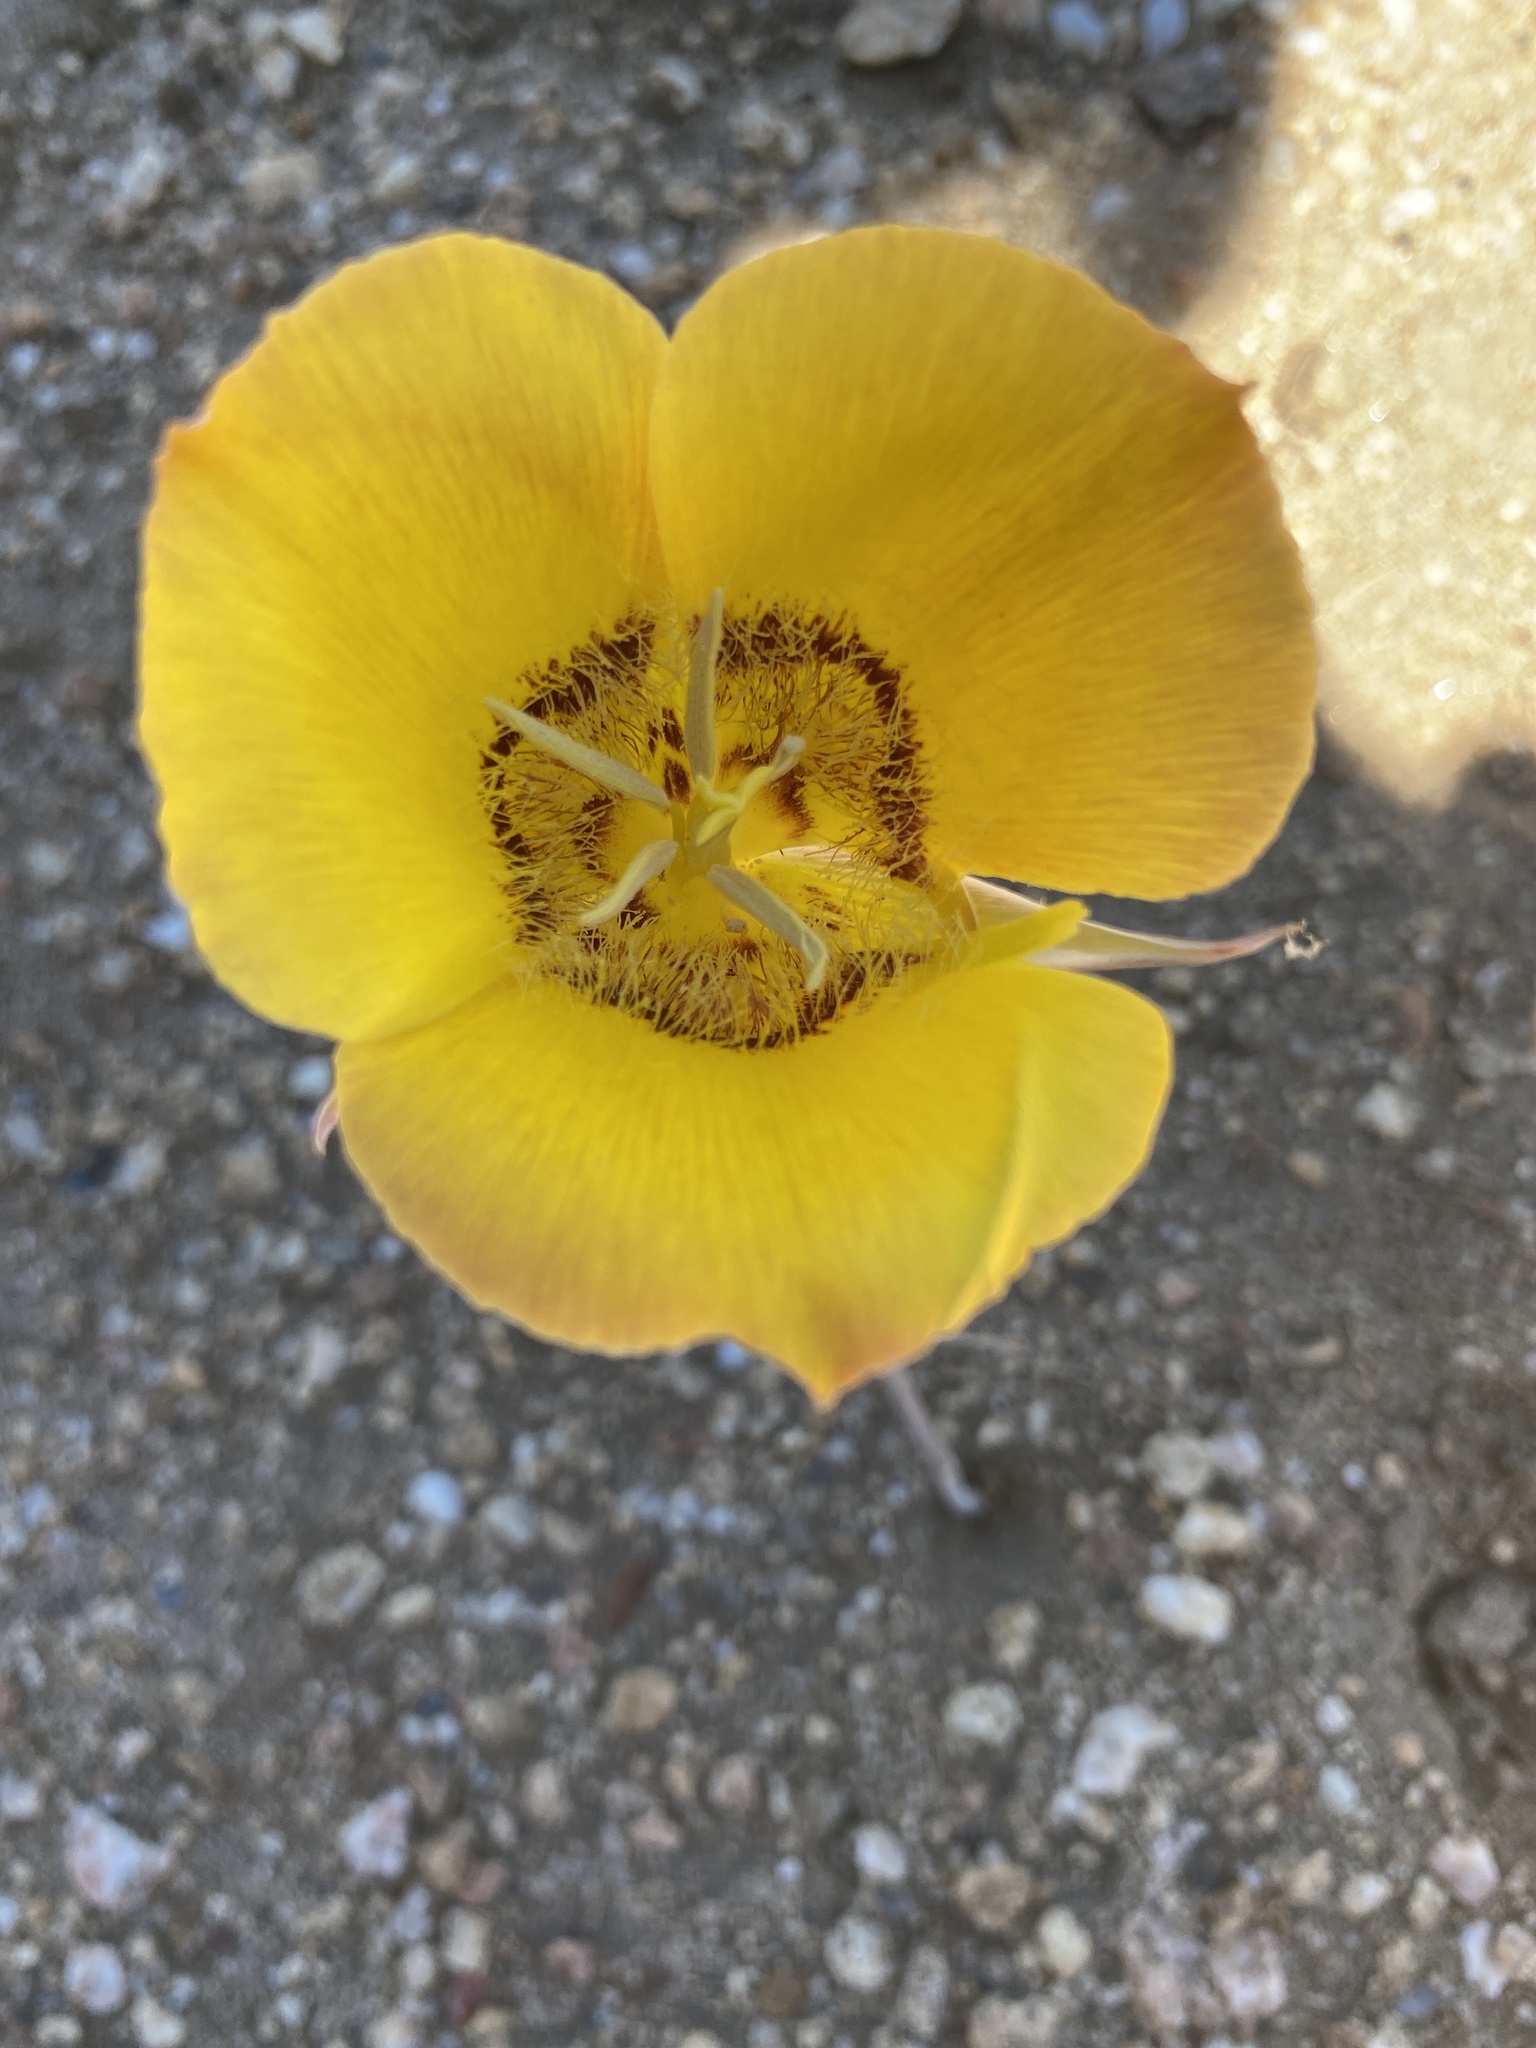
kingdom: Plantae
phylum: Tracheophyta
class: Liliopsida
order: Liliales
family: Liliaceae
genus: Calochortus
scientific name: Calochortus concolor
